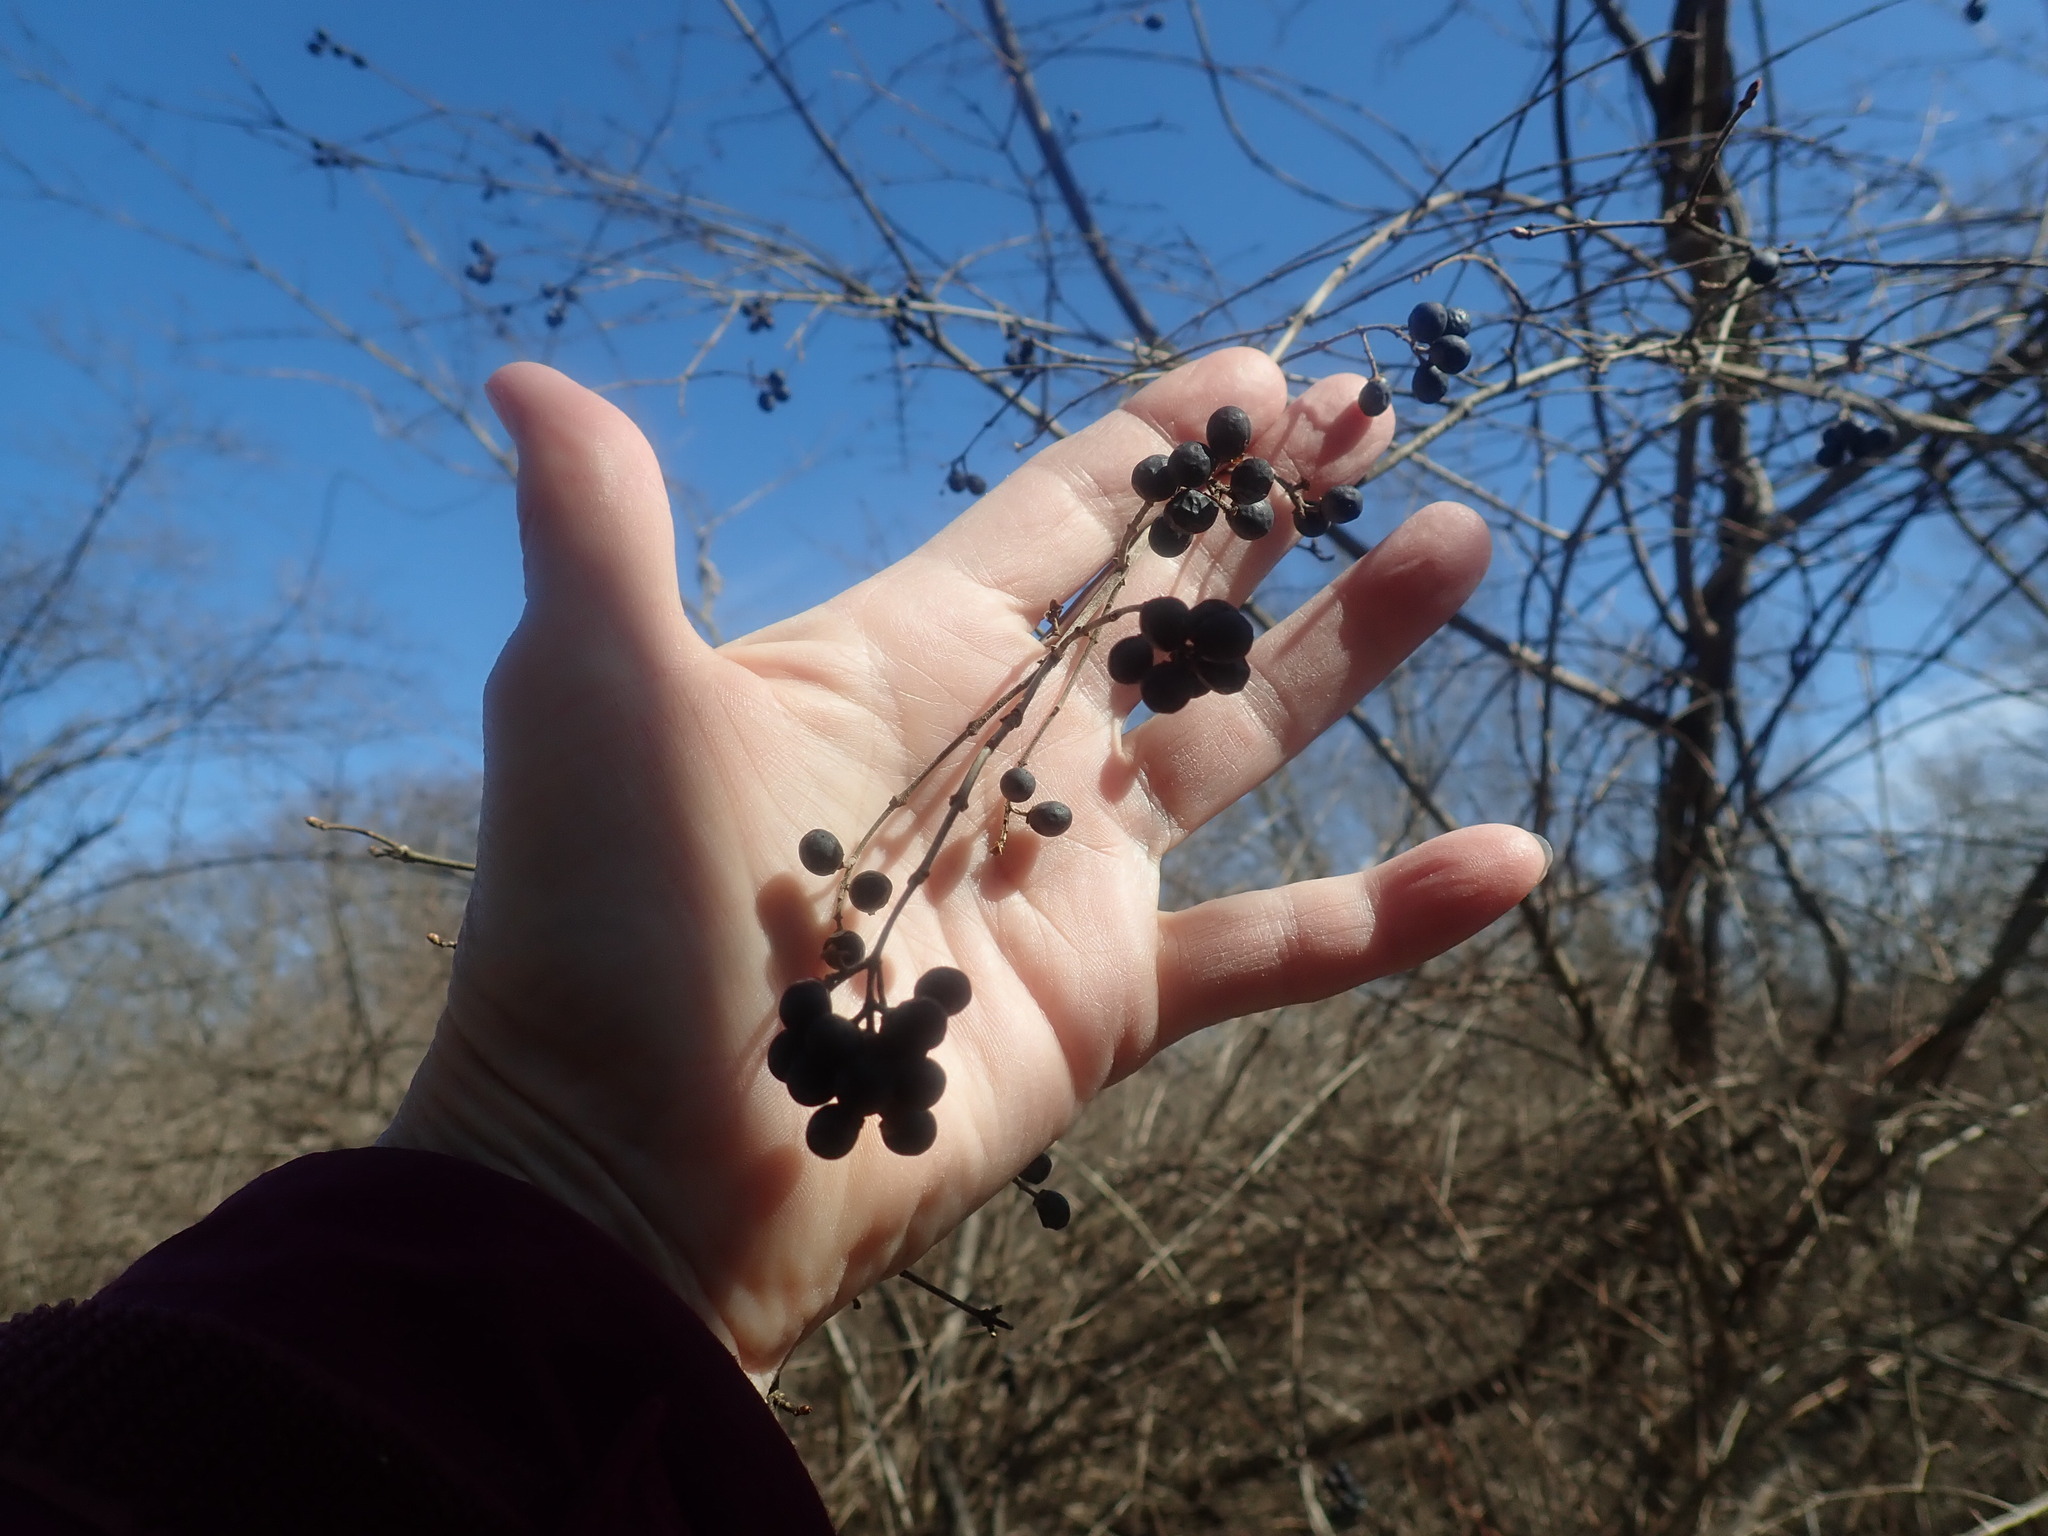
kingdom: Plantae
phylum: Tracheophyta
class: Magnoliopsida
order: Lamiales
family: Oleaceae
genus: Ligustrum
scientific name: Ligustrum obtusifolium
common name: Border privet
